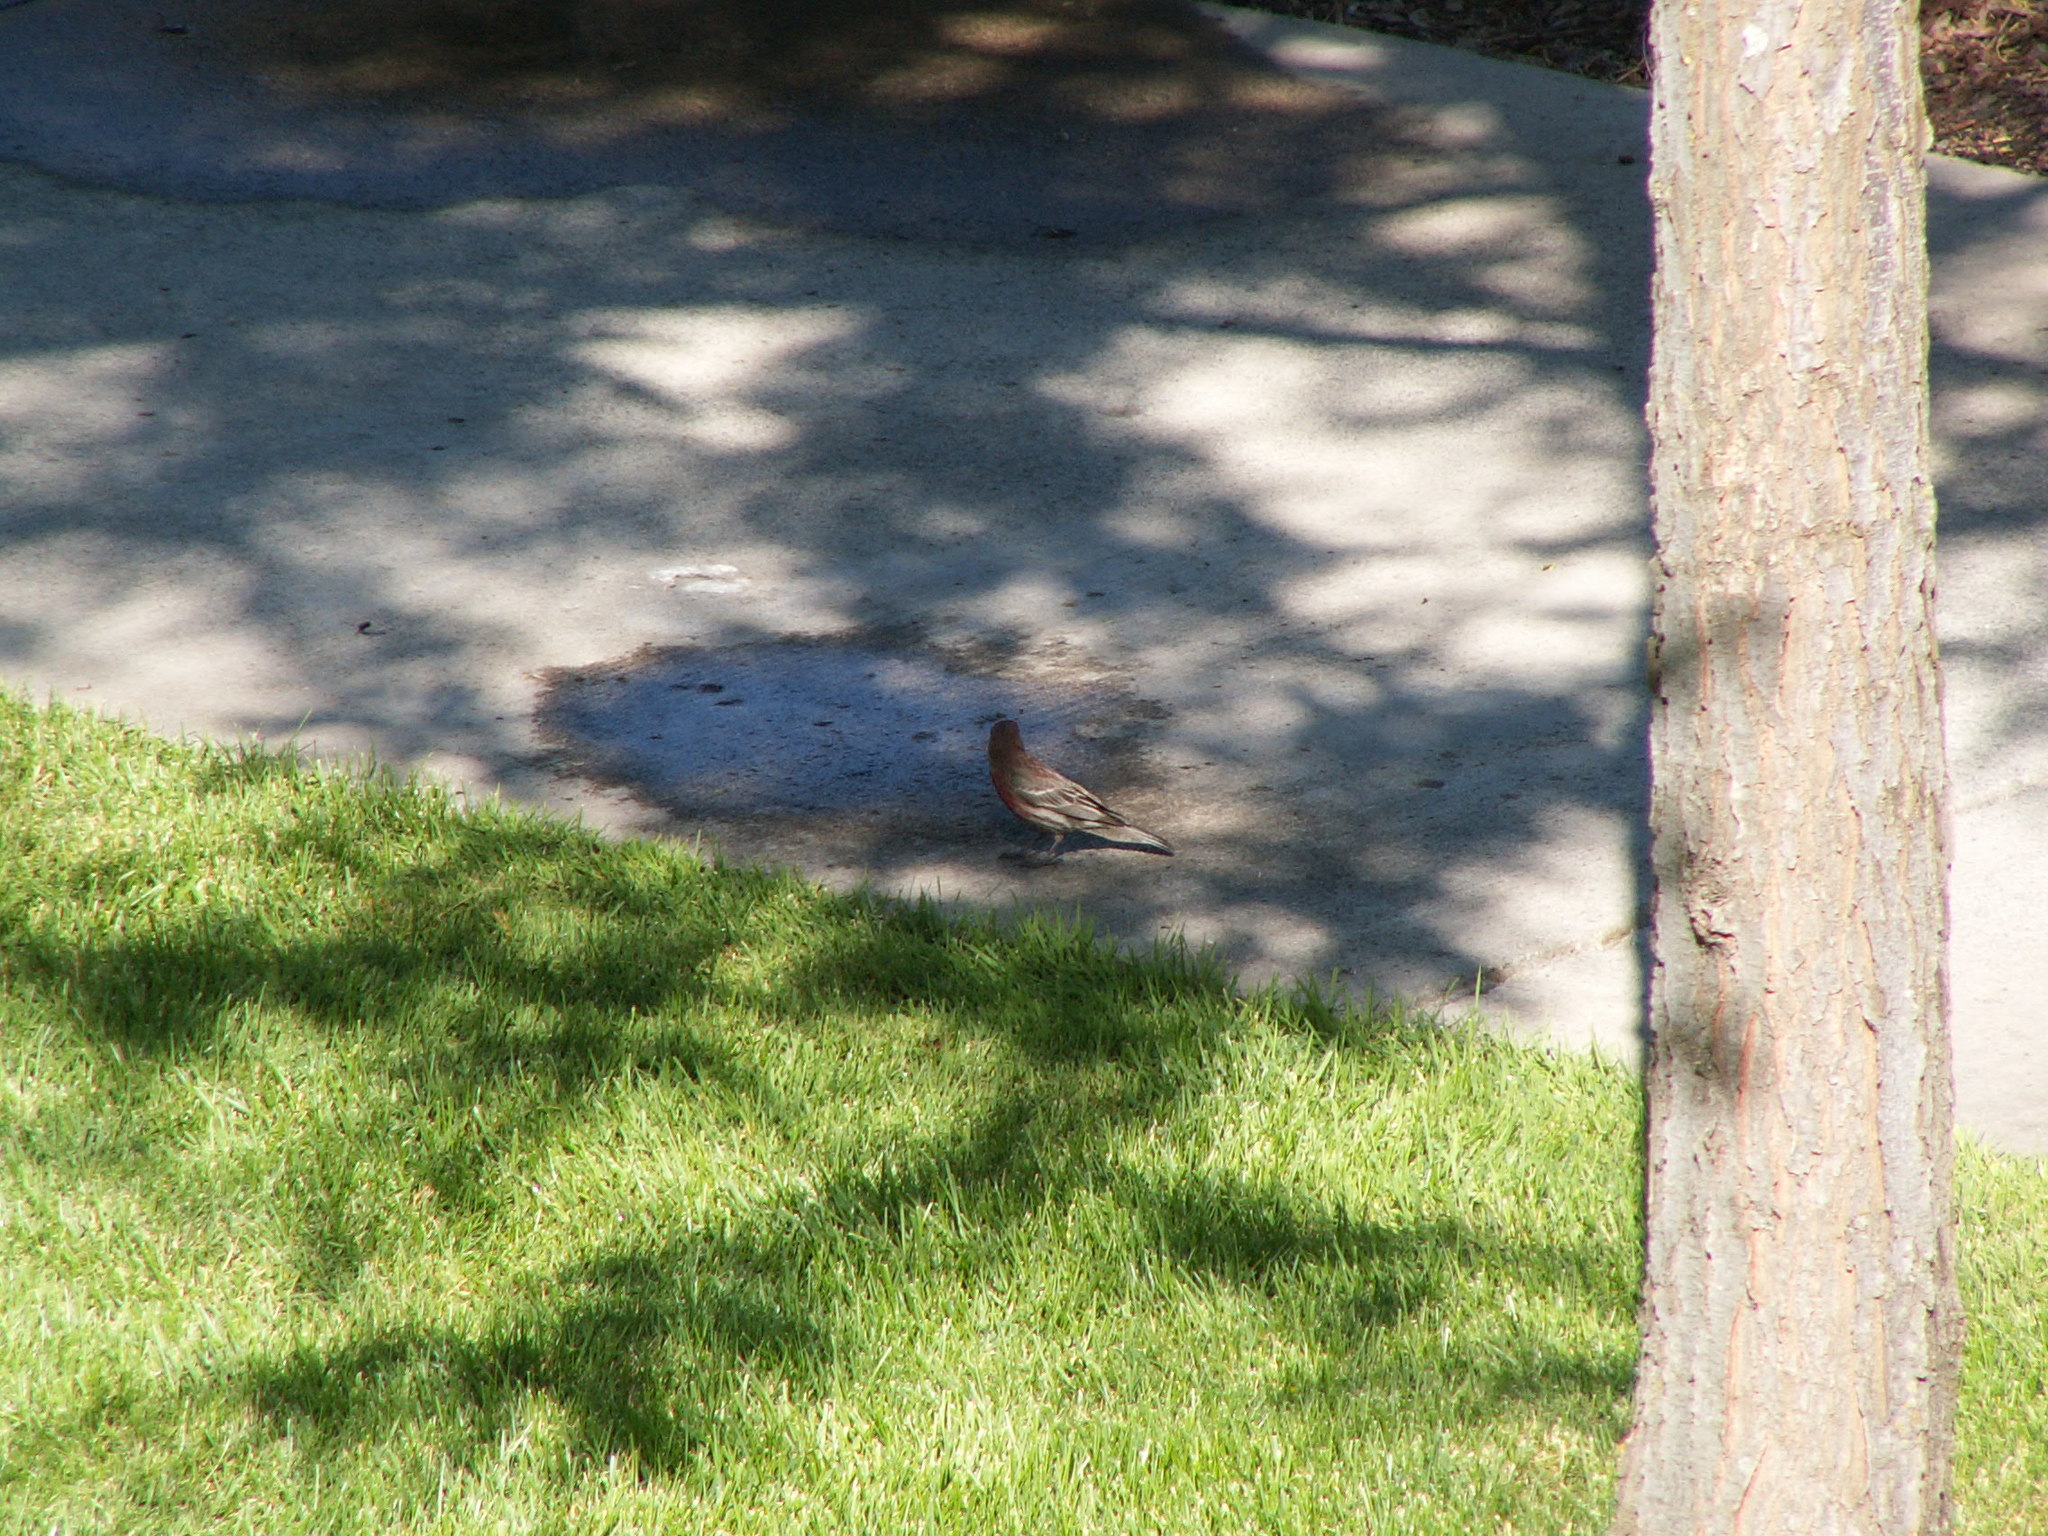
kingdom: Animalia
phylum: Chordata
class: Aves
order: Passeriformes
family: Fringillidae
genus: Haemorhous
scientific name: Haemorhous mexicanus
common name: House finch
